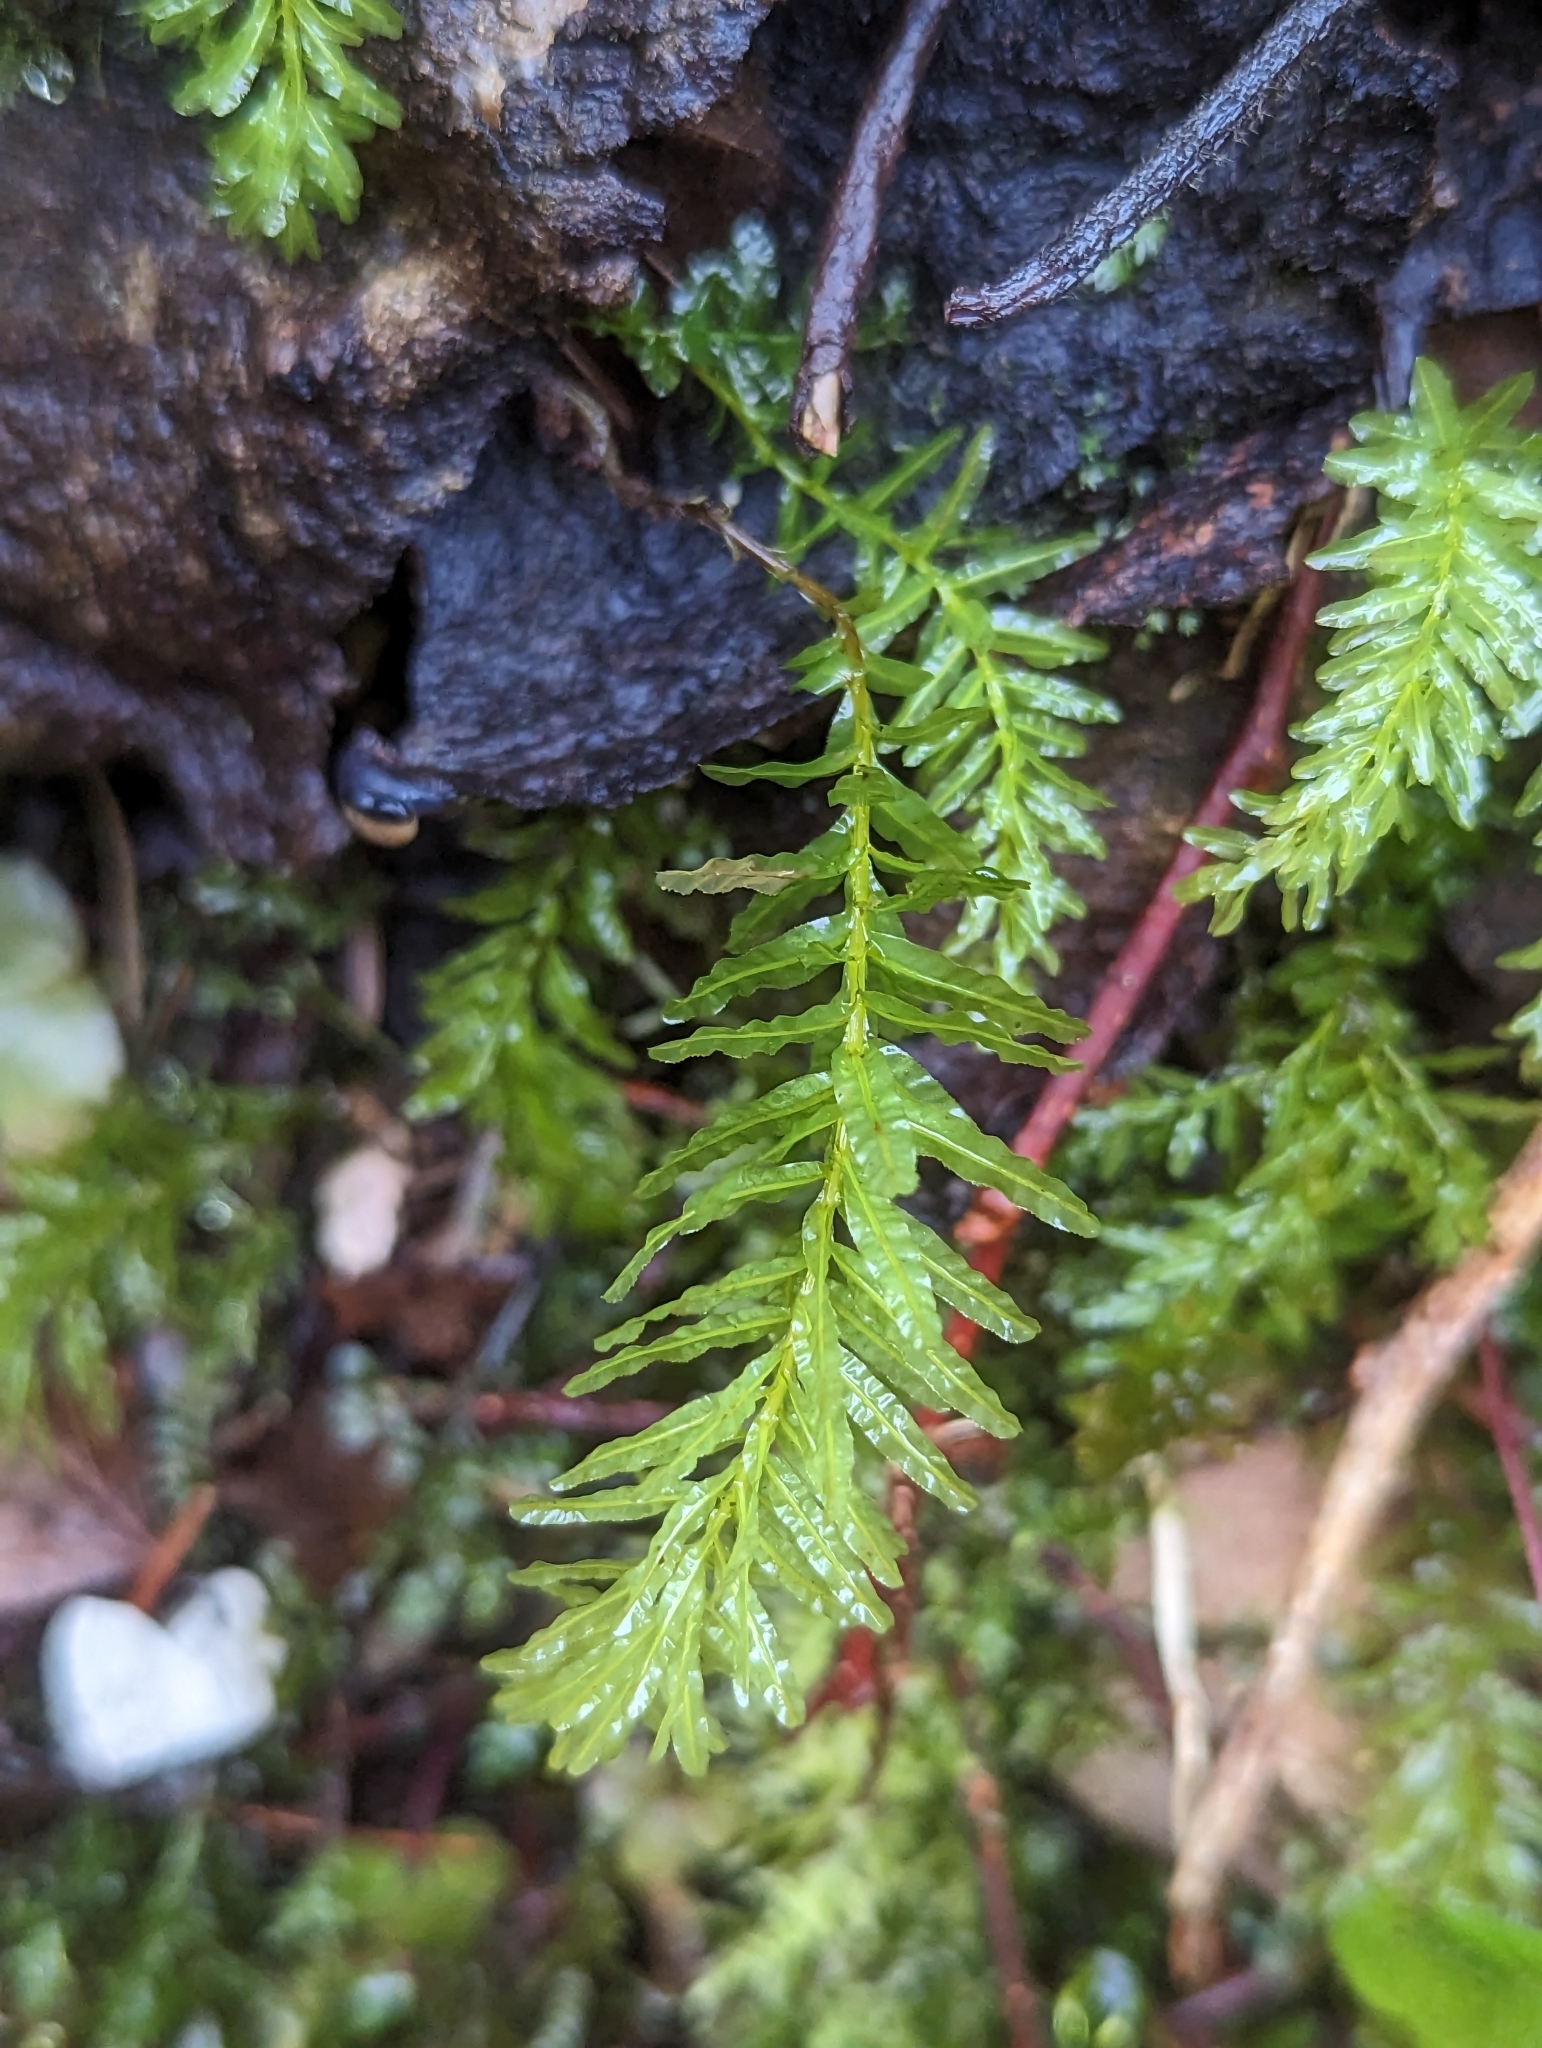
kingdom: Plantae
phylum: Bryophyta
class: Bryopsida
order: Bryales
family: Mniaceae
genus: Plagiomnium
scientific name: Plagiomnium undulatum
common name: Hart's-tongue thyme-moss
